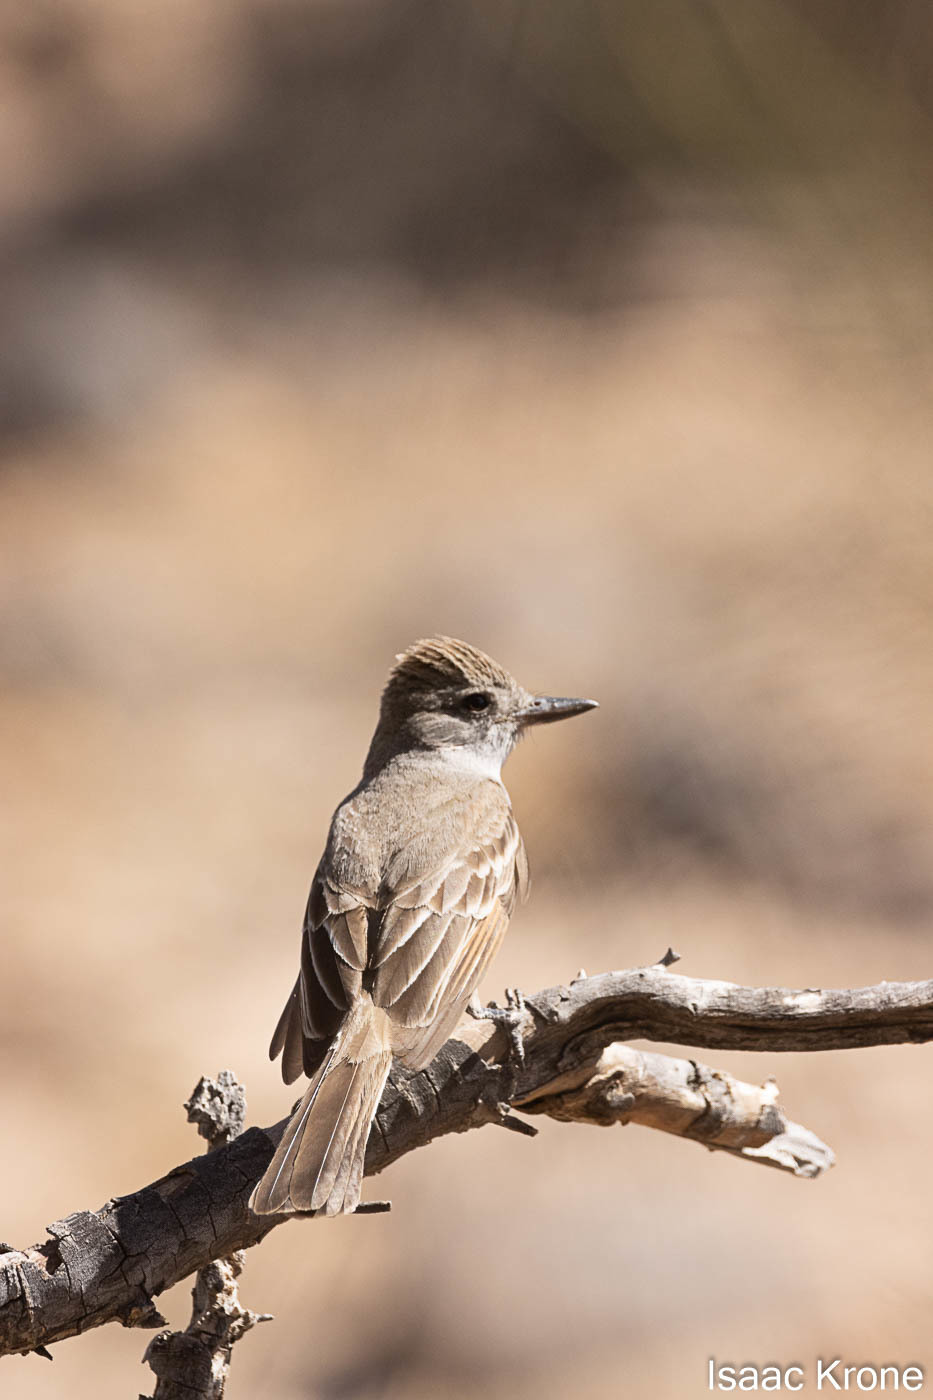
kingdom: Animalia
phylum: Chordata
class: Aves
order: Passeriformes
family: Tyrannidae
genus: Myiarchus
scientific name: Myiarchus cinerascens
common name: Ash-throated flycatcher
